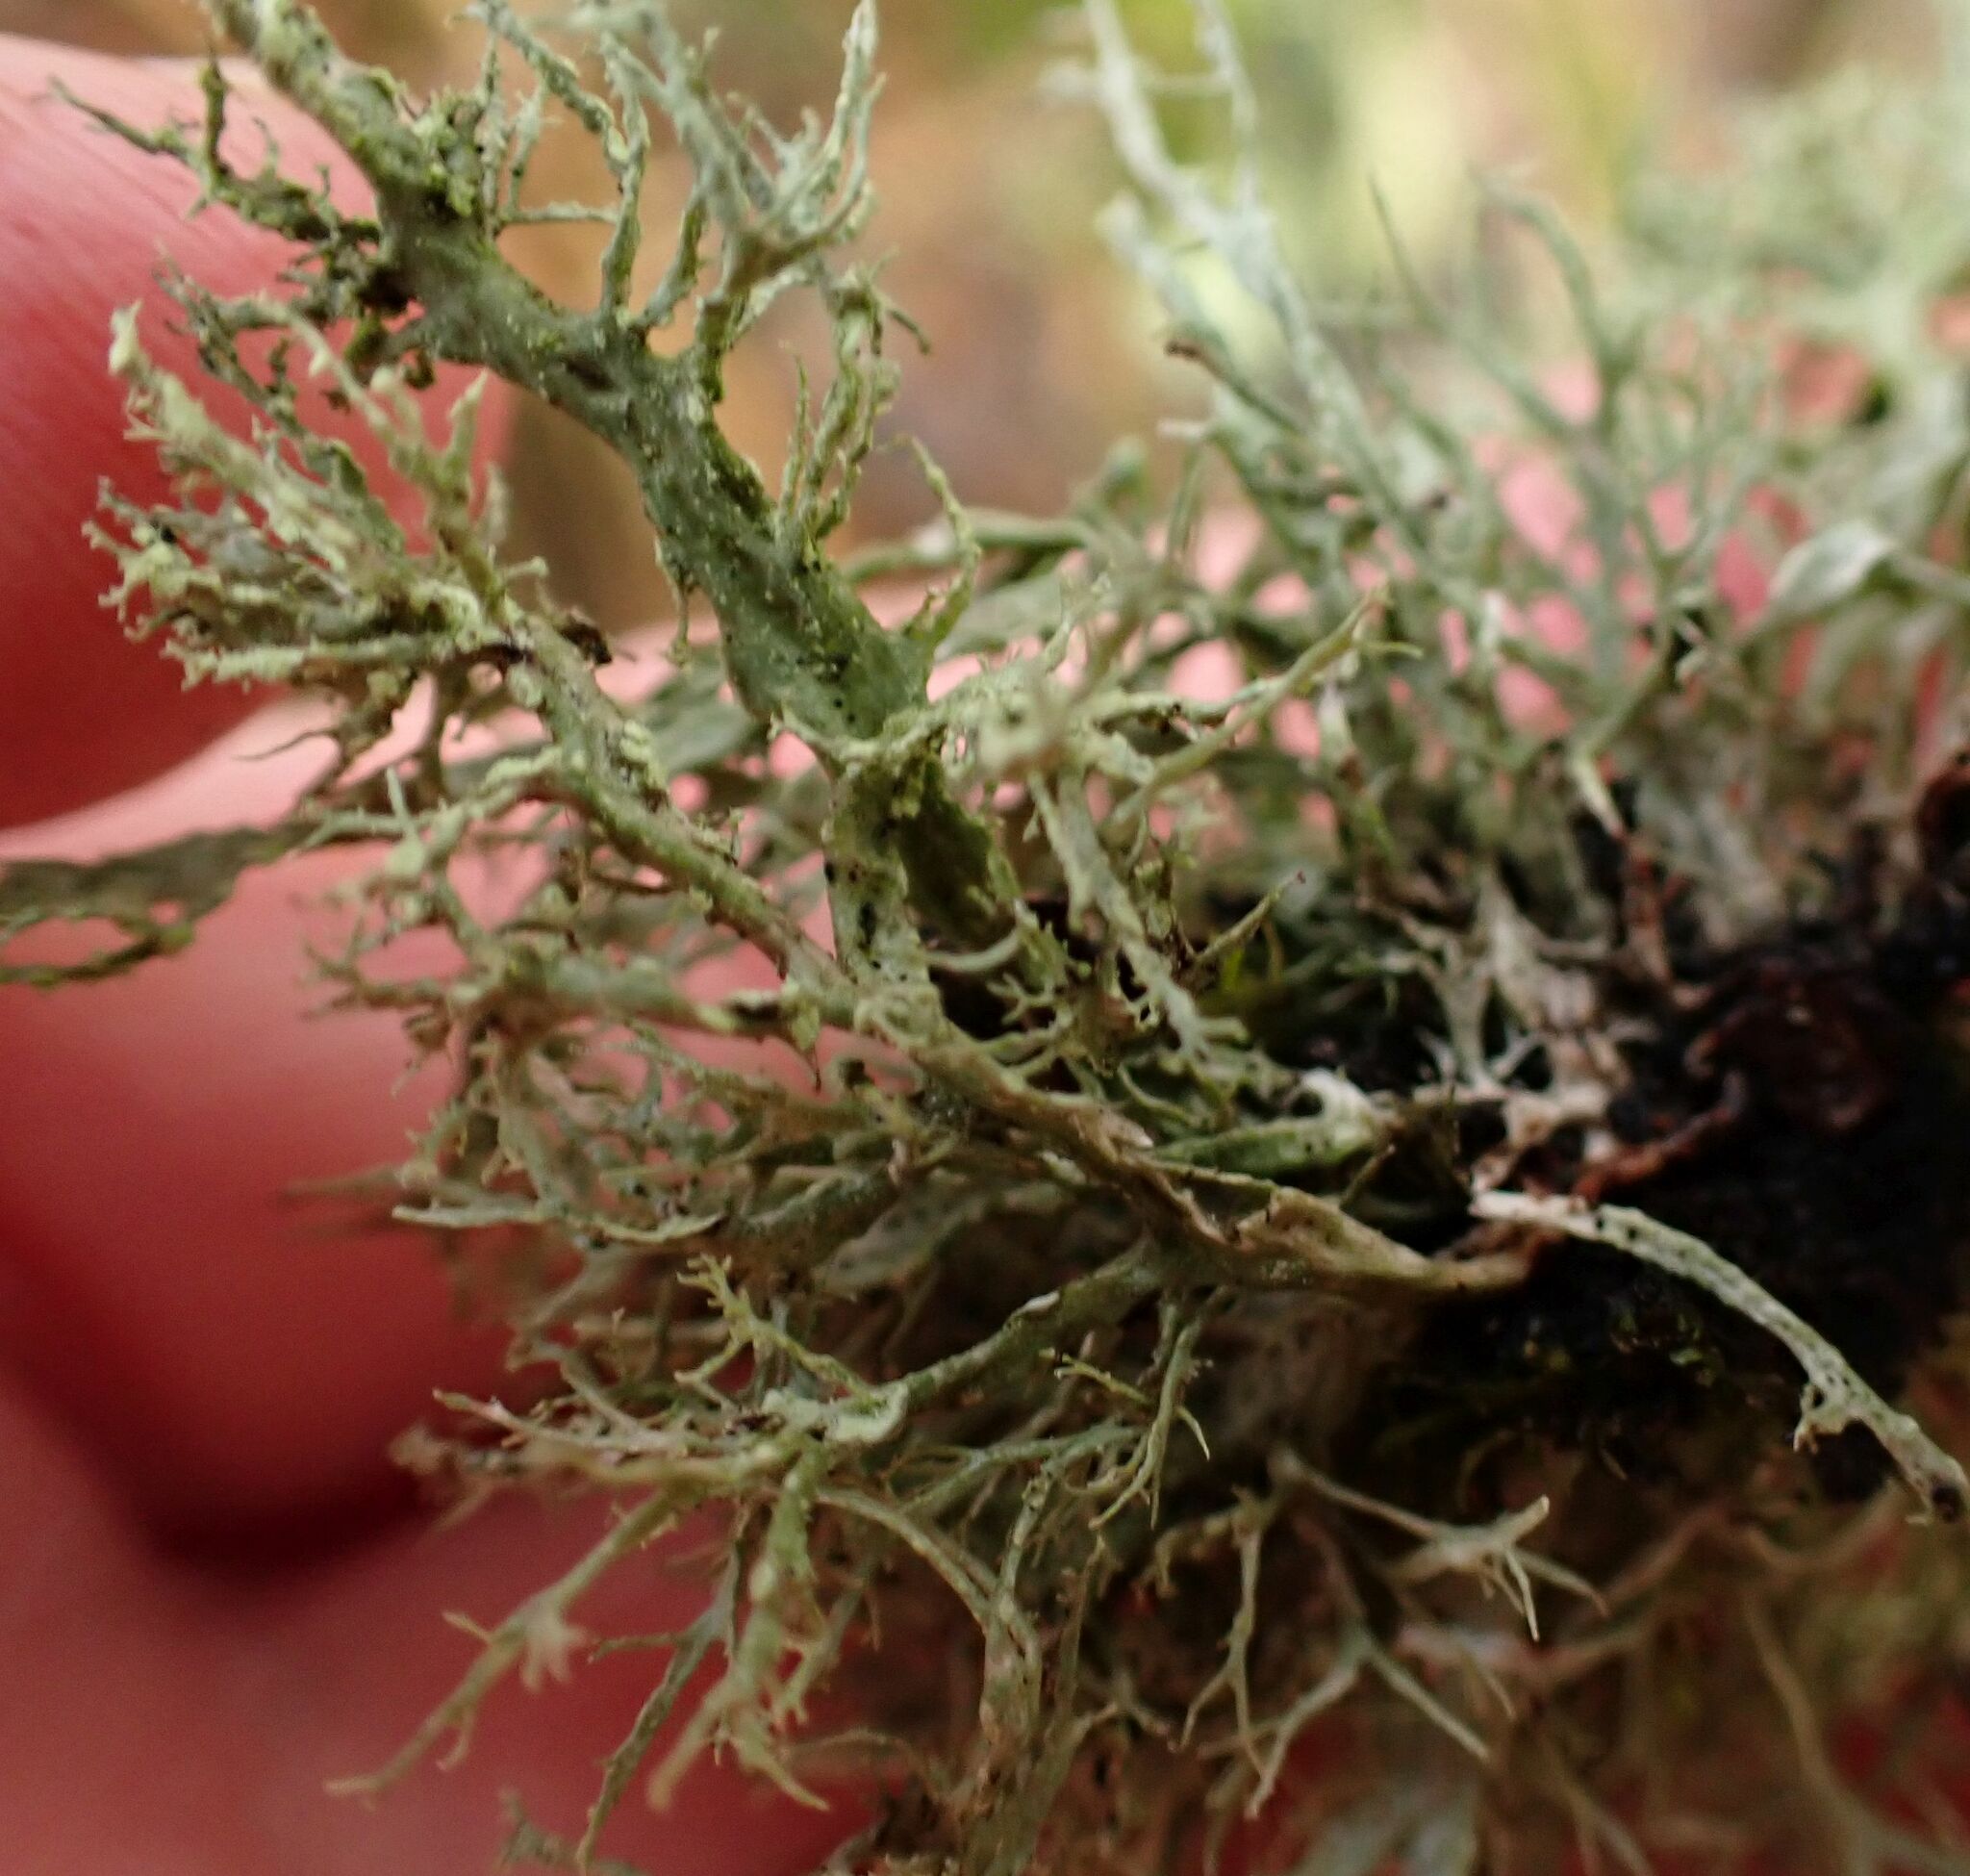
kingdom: Fungi
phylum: Ascomycota
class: Lecanoromycetes
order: Lecanorales
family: Ramalinaceae
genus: Ramalina
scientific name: Ramalina farinacea
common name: Farinose cartilage lichen
